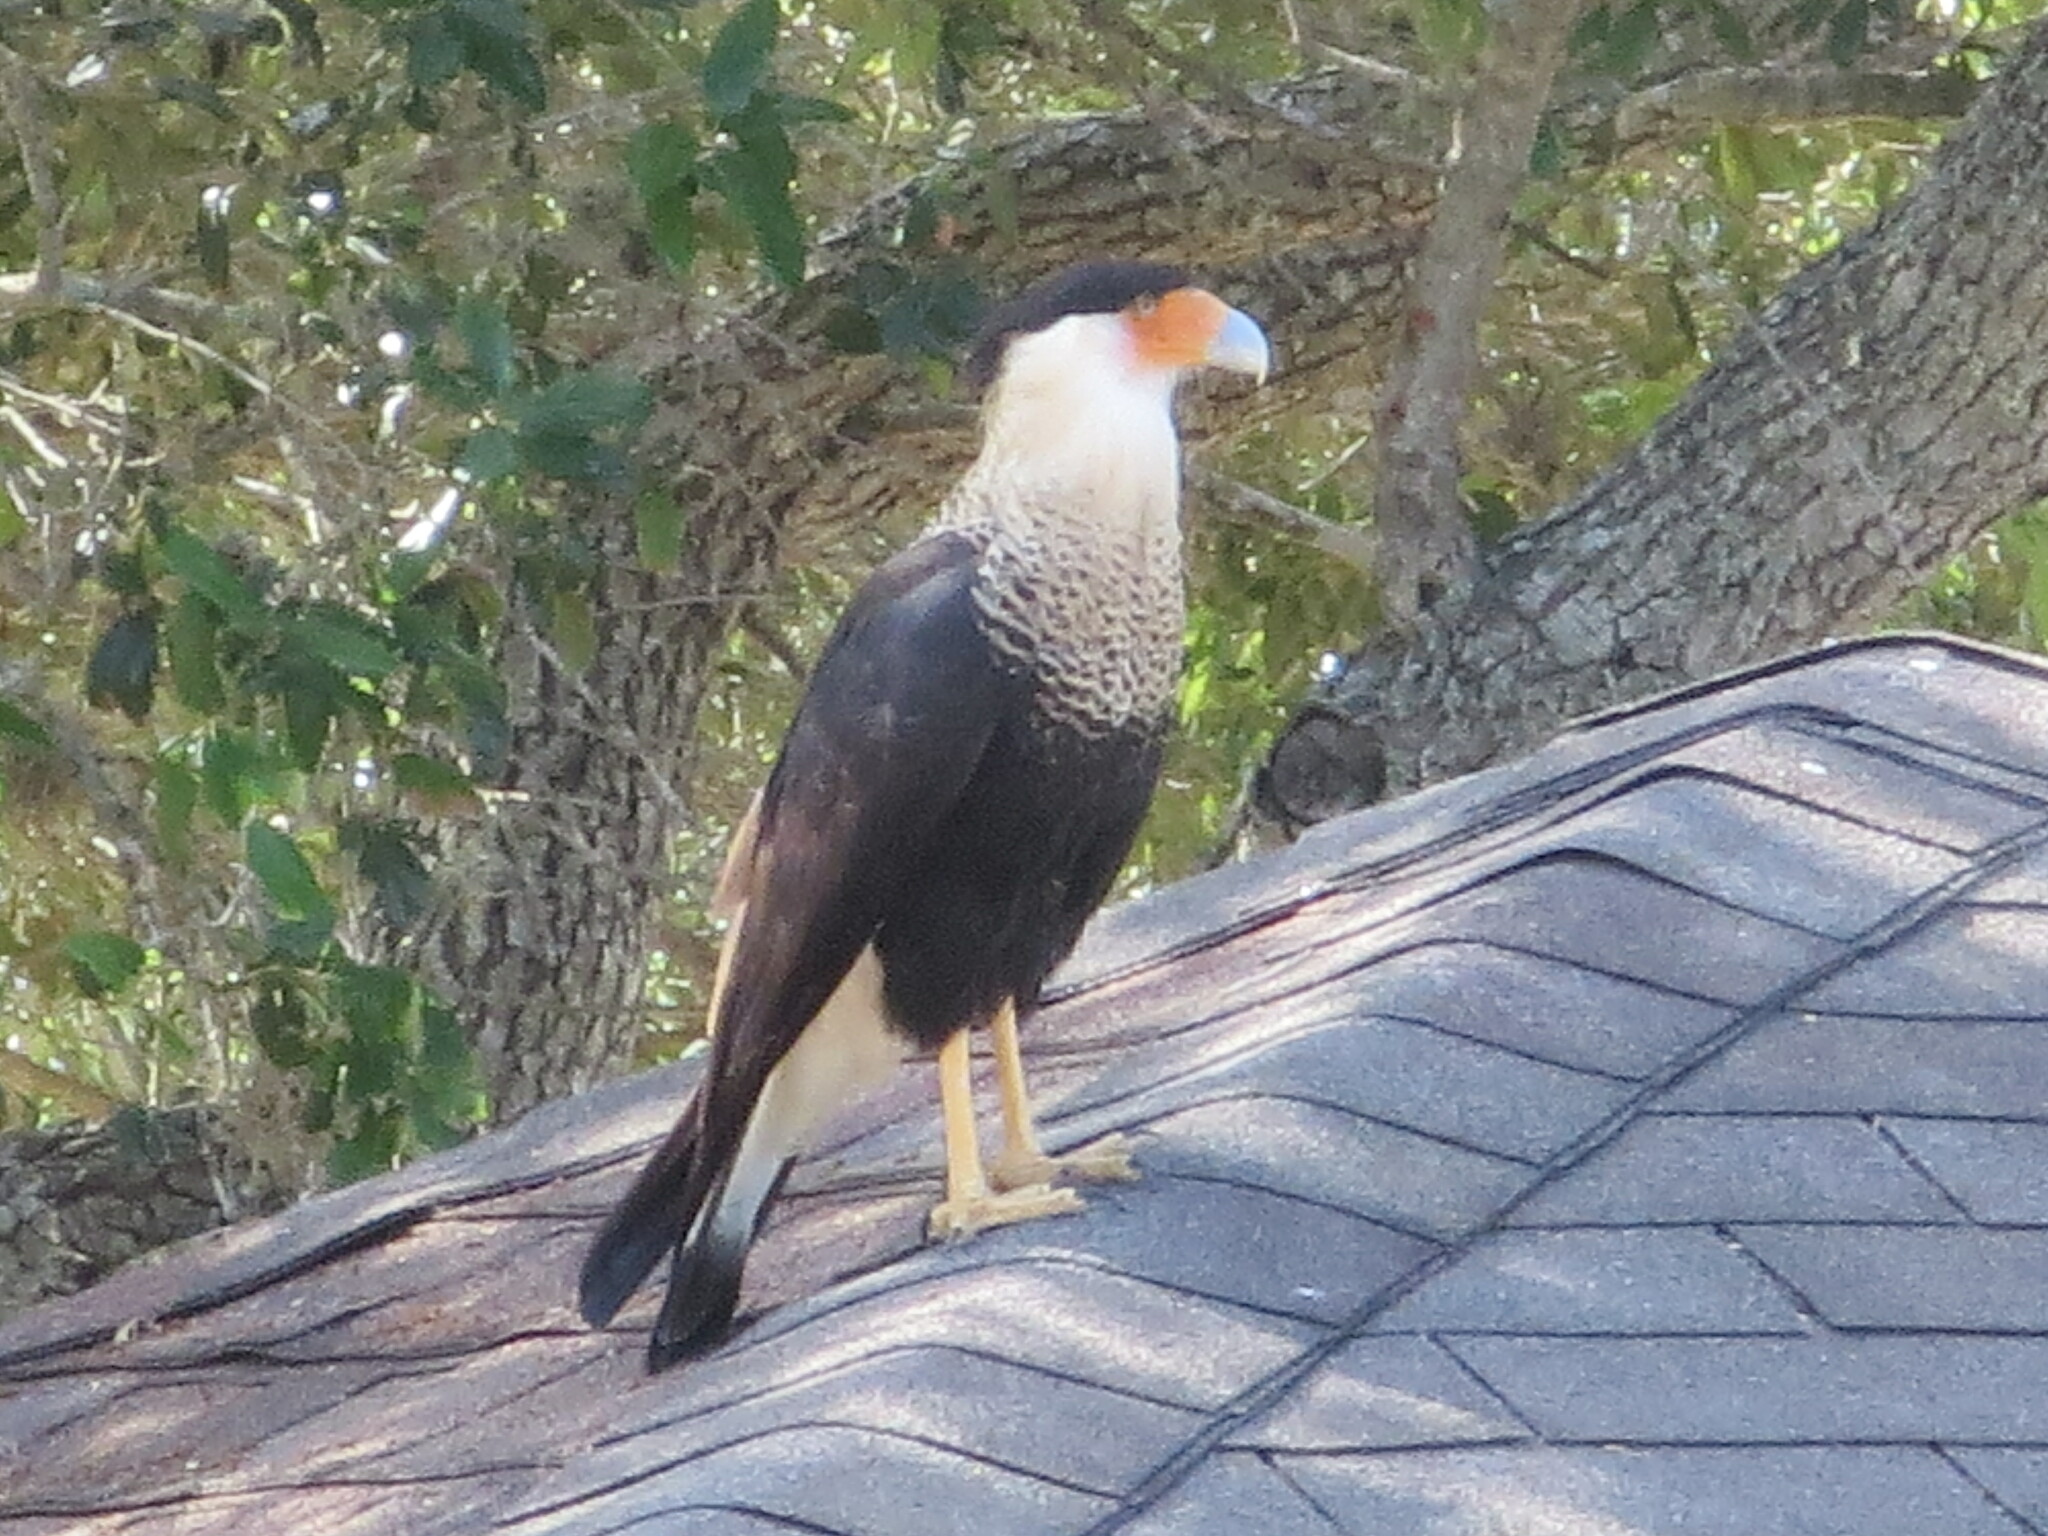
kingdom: Animalia
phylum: Chordata
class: Aves
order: Falconiformes
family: Falconidae
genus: Caracara
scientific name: Caracara plancus
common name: Southern caracara
